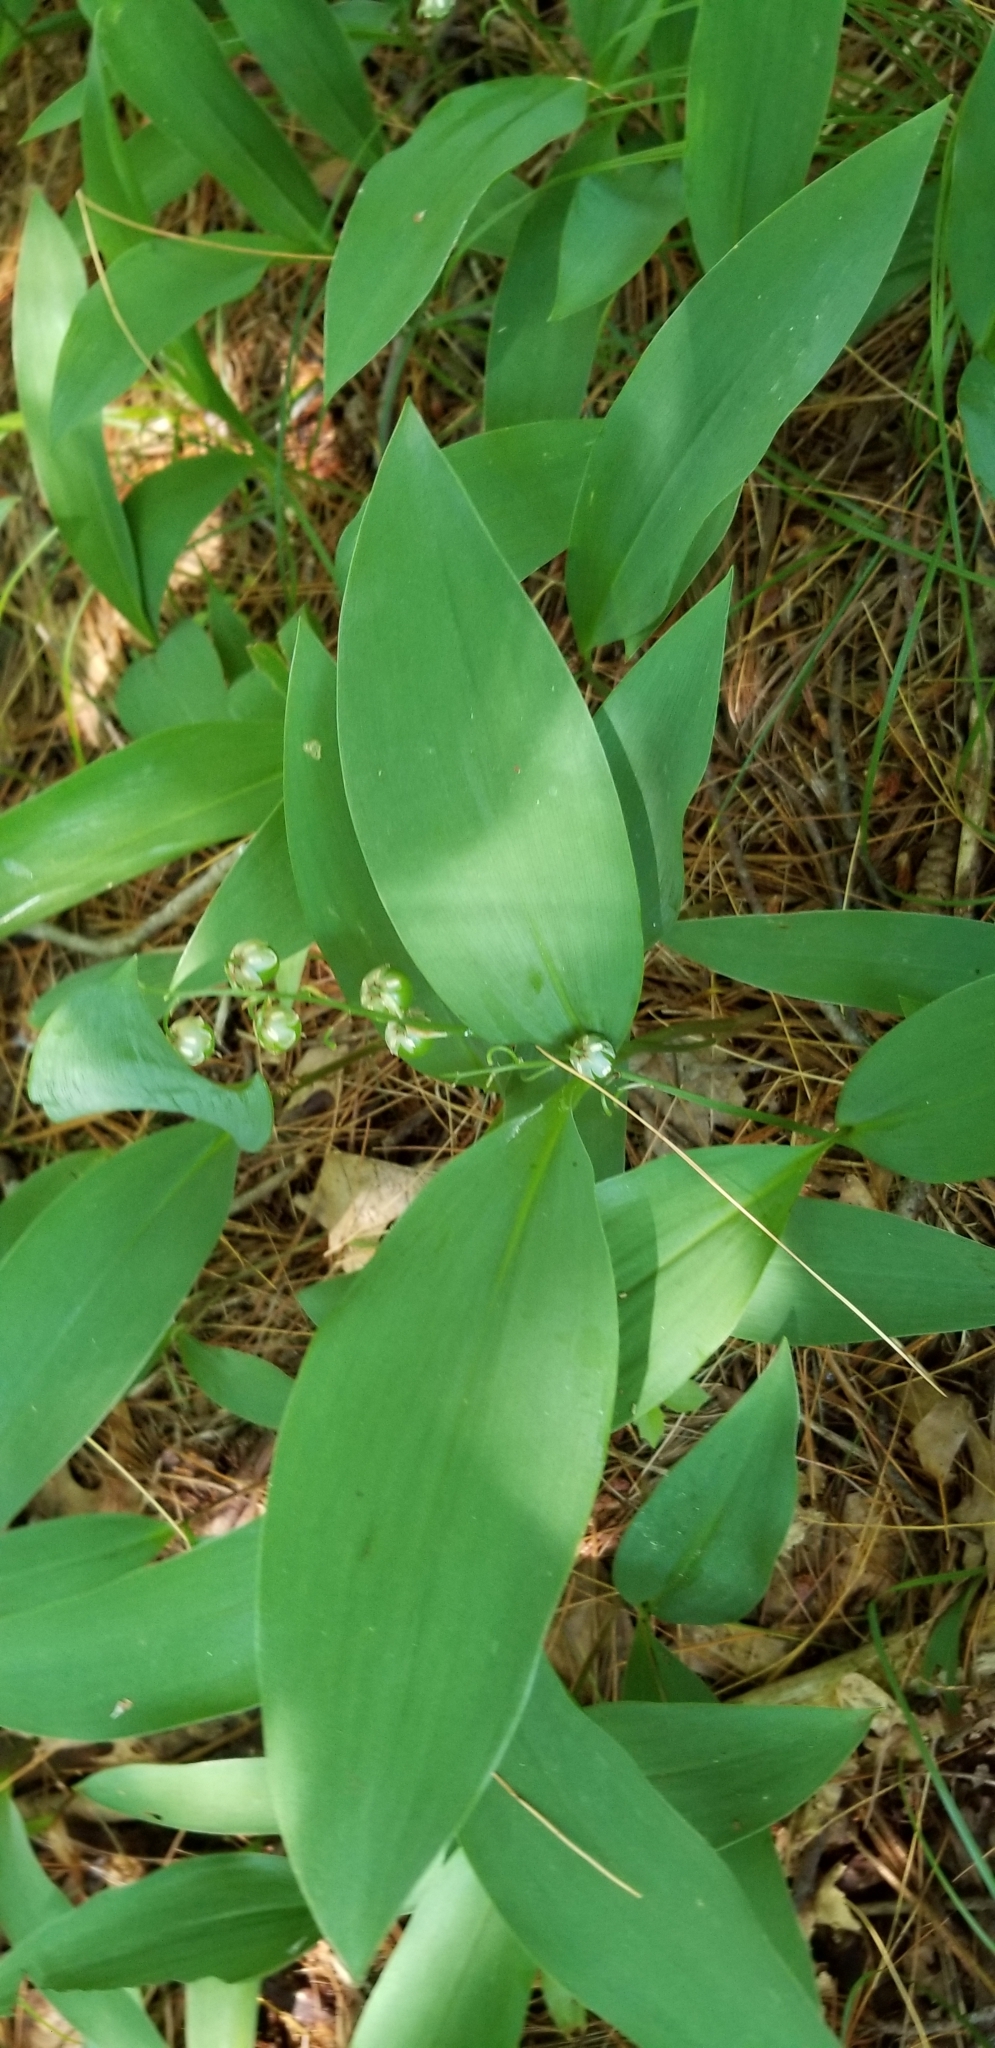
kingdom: Plantae
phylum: Tracheophyta
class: Liliopsida
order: Asparagales
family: Asparagaceae
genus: Convallaria
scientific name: Convallaria majalis
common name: Lily-of-the-valley
